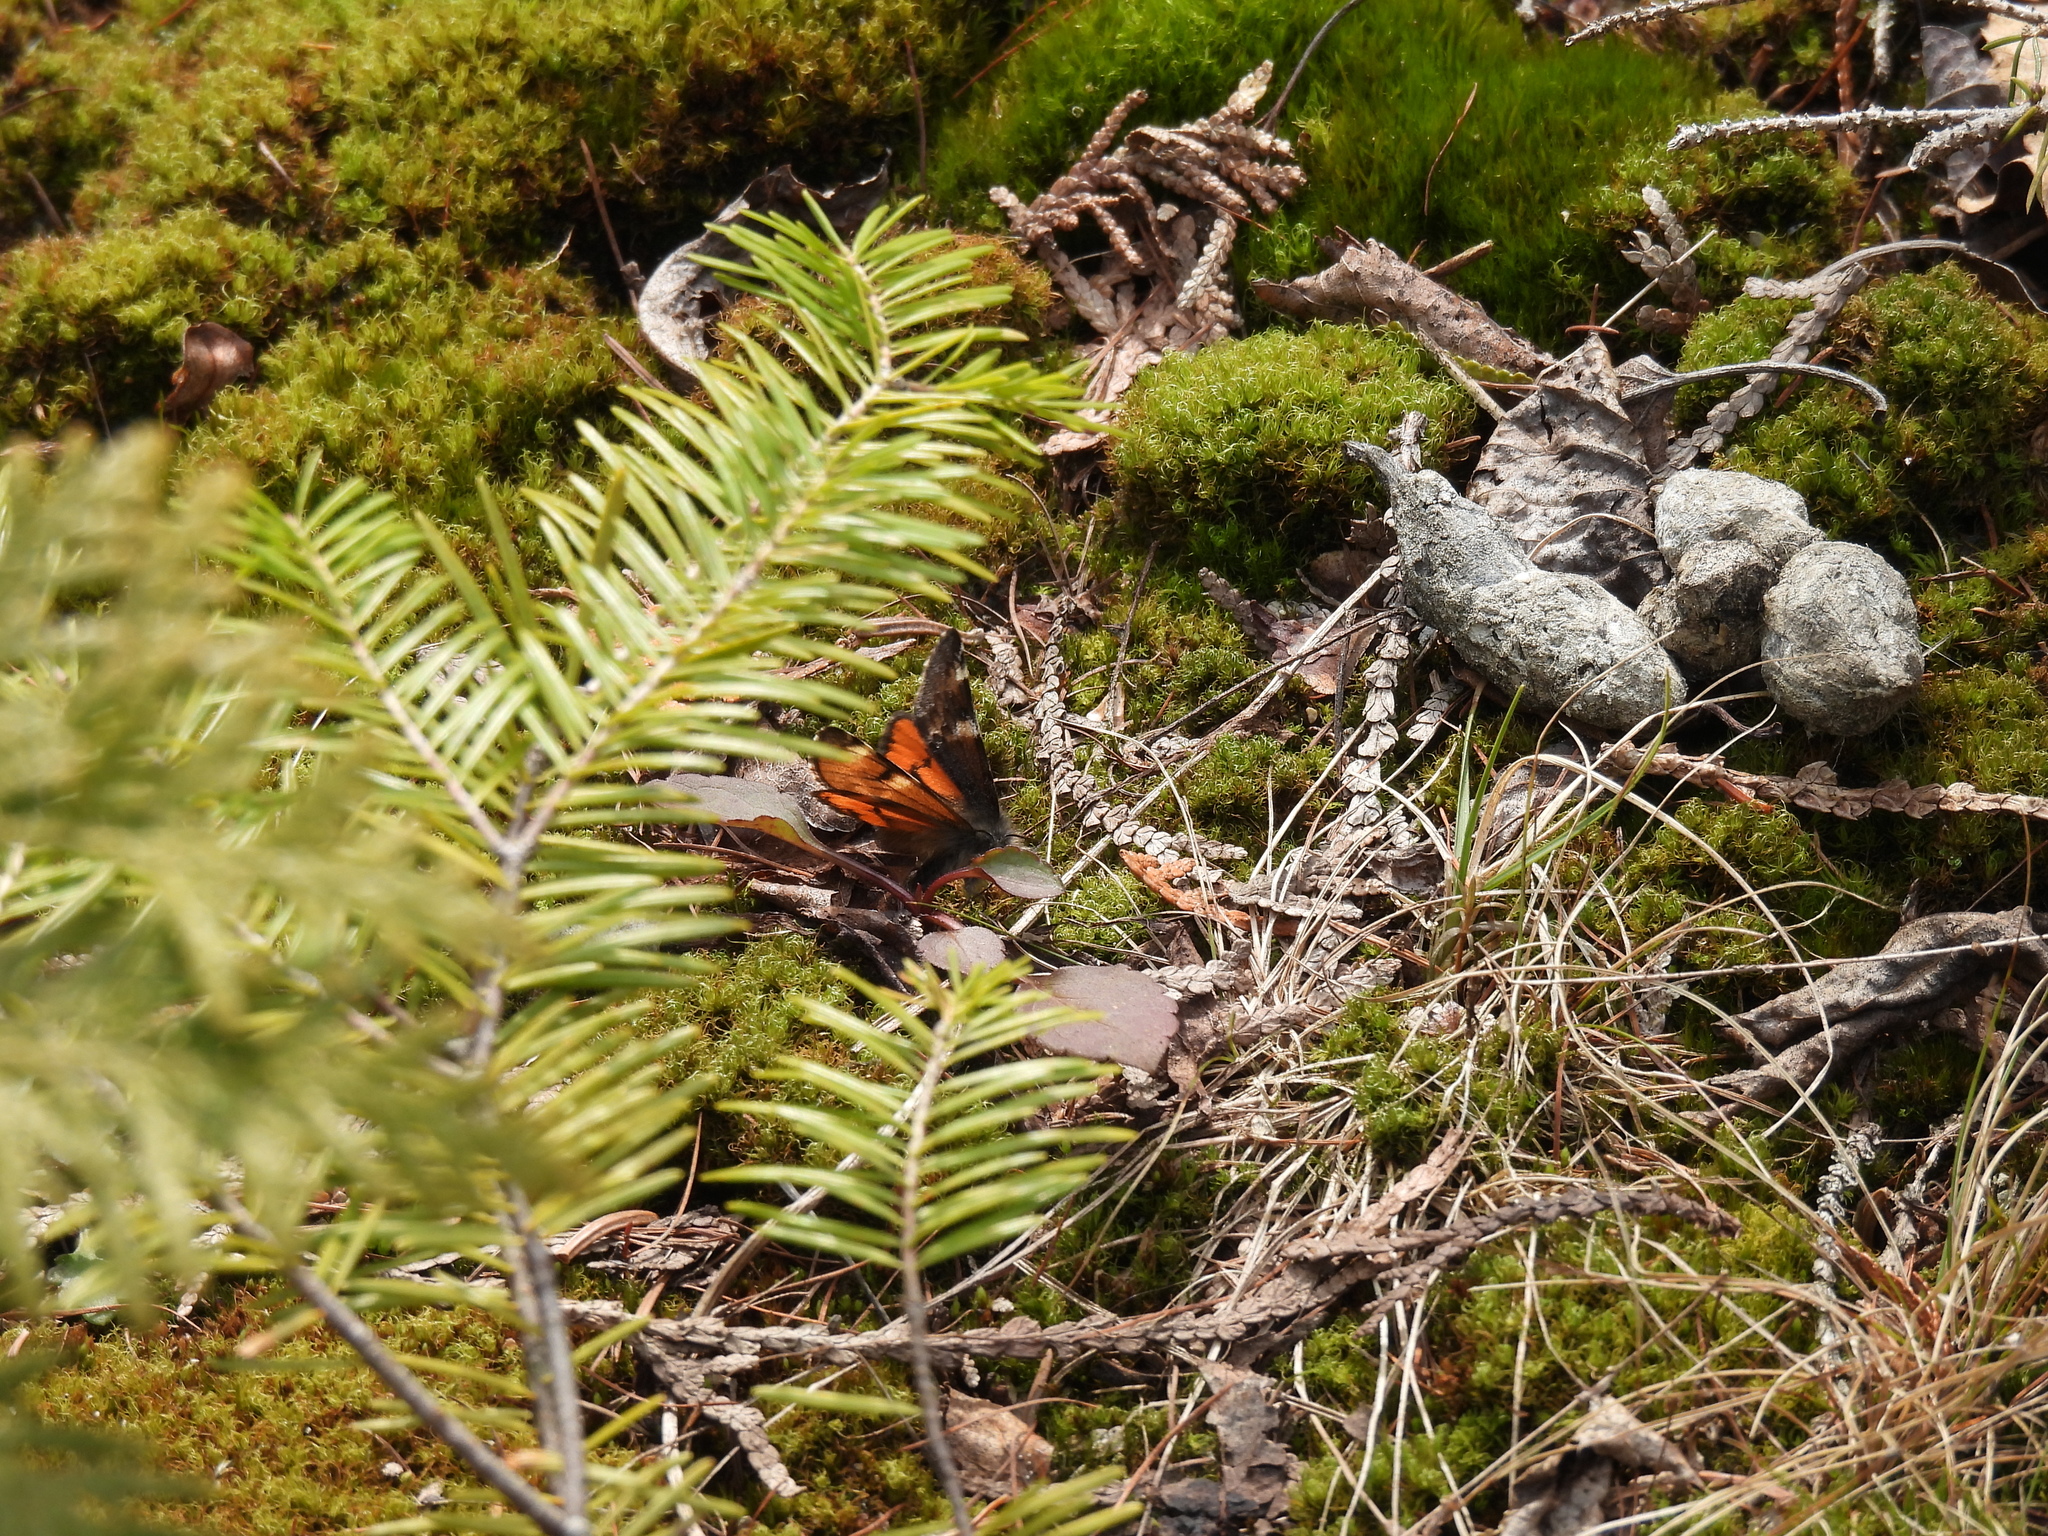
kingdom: Animalia
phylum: Arthropoda
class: Insecta
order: Lepidoptera
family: Geometridae
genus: Archiearis
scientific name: Archiearis infans
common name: First born geometer
